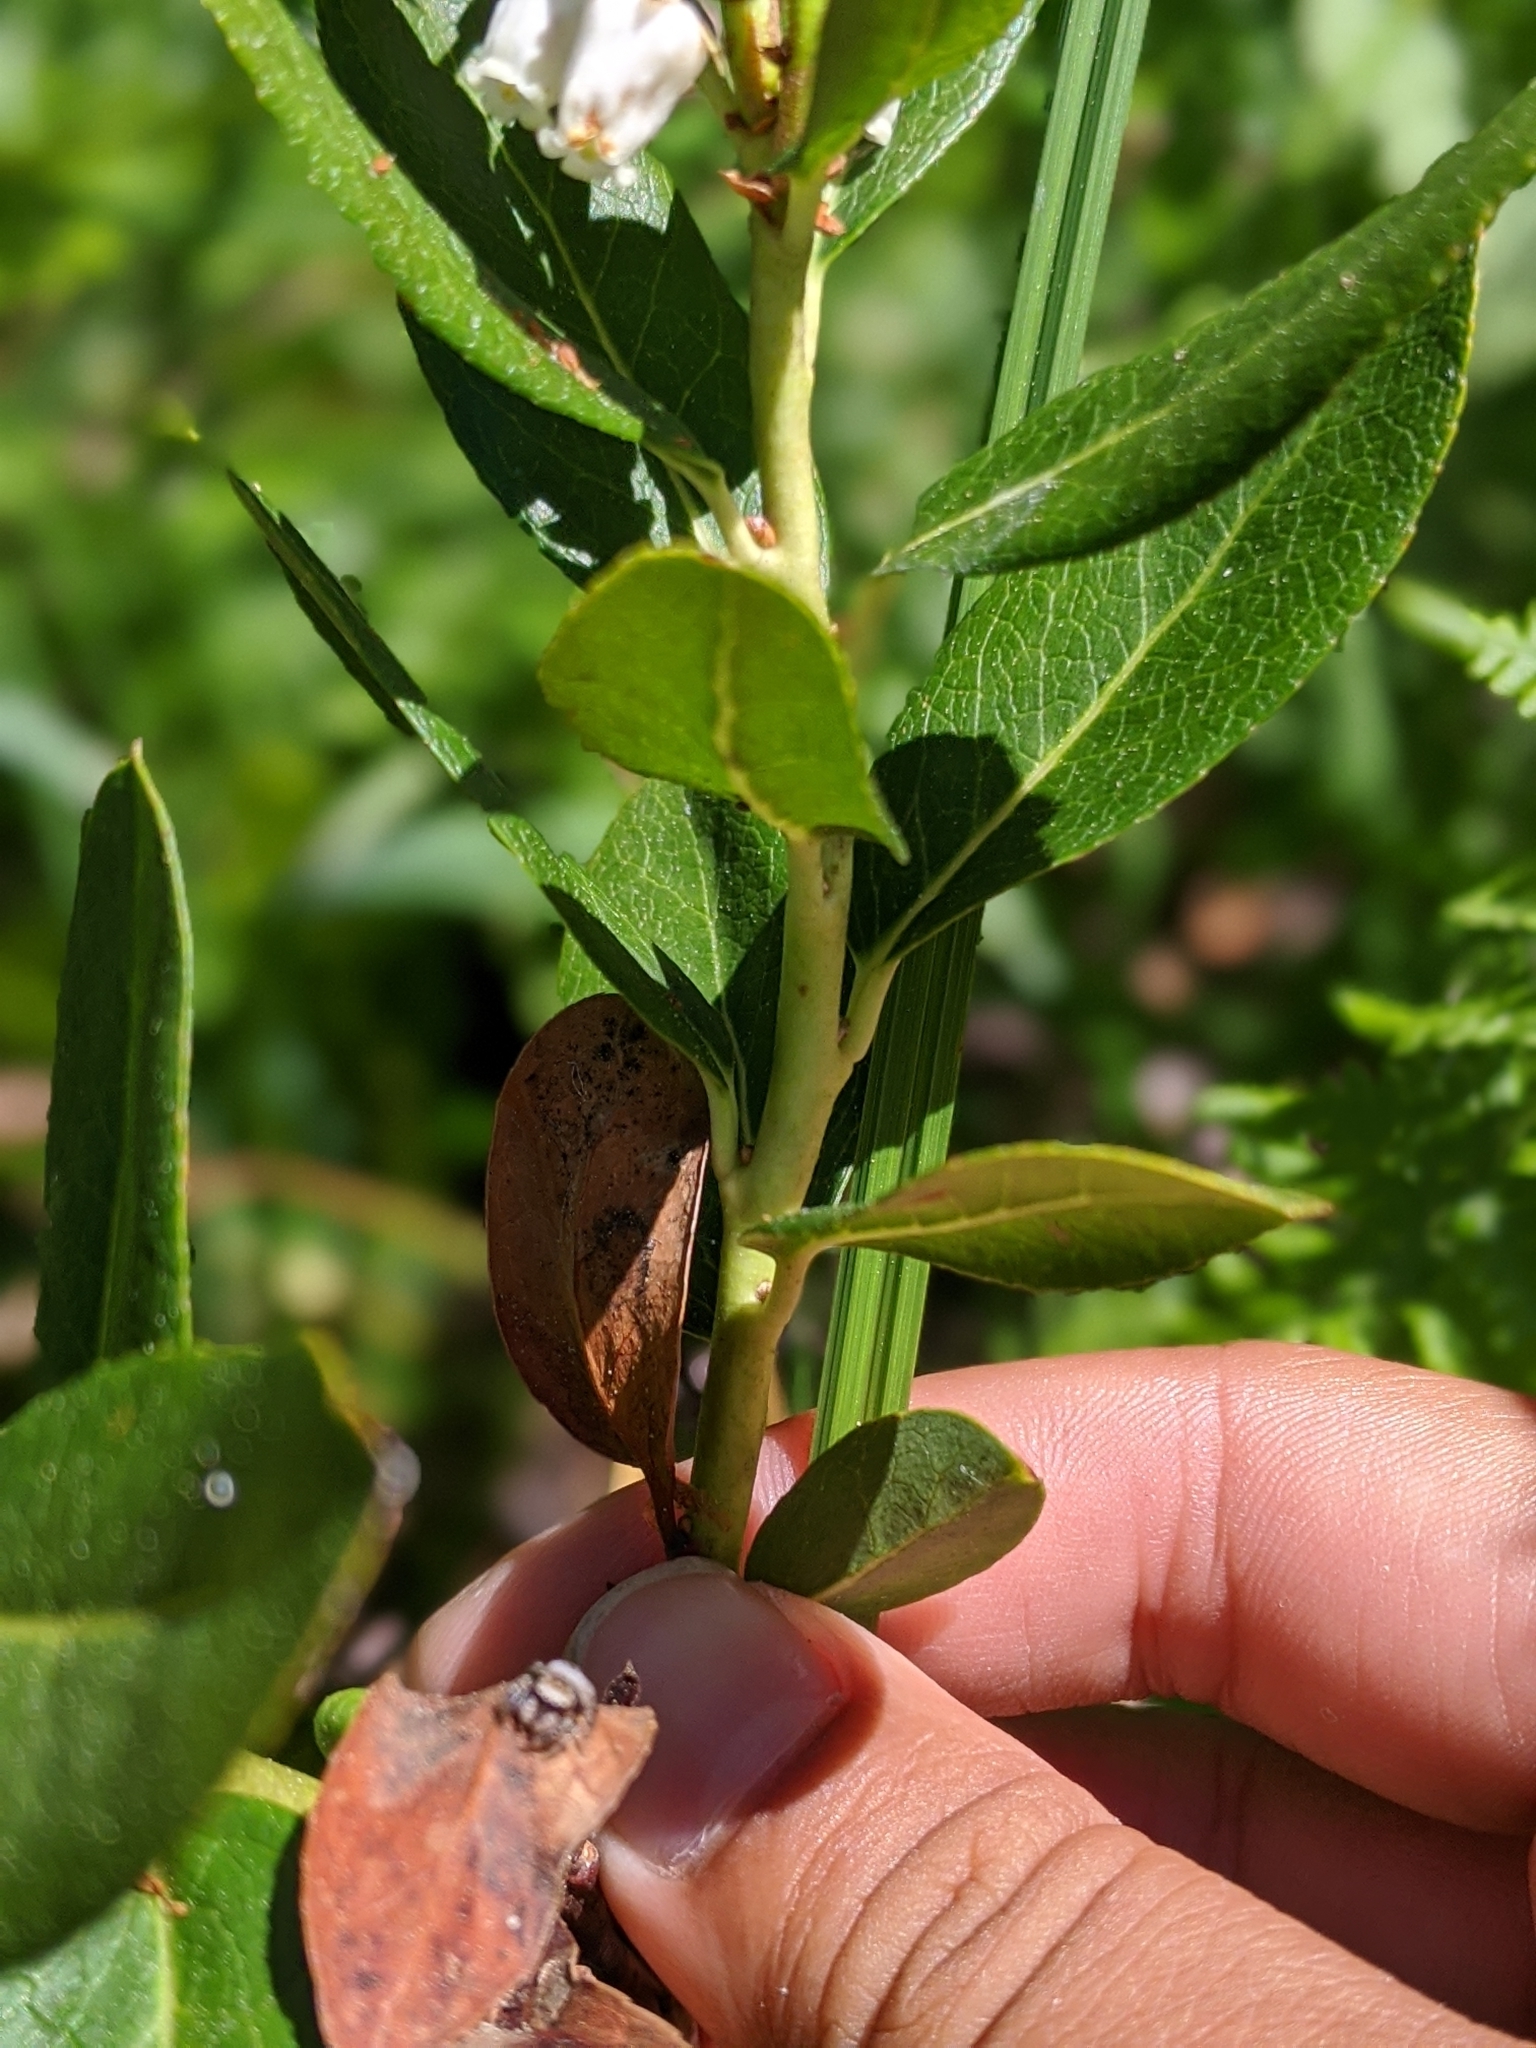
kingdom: Plantae
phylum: Tracheophyta
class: Magnoliopsida
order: Ericales
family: Ericaceae
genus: Leucothoe
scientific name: Leucothoe davisiae
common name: Sierra-laurel
